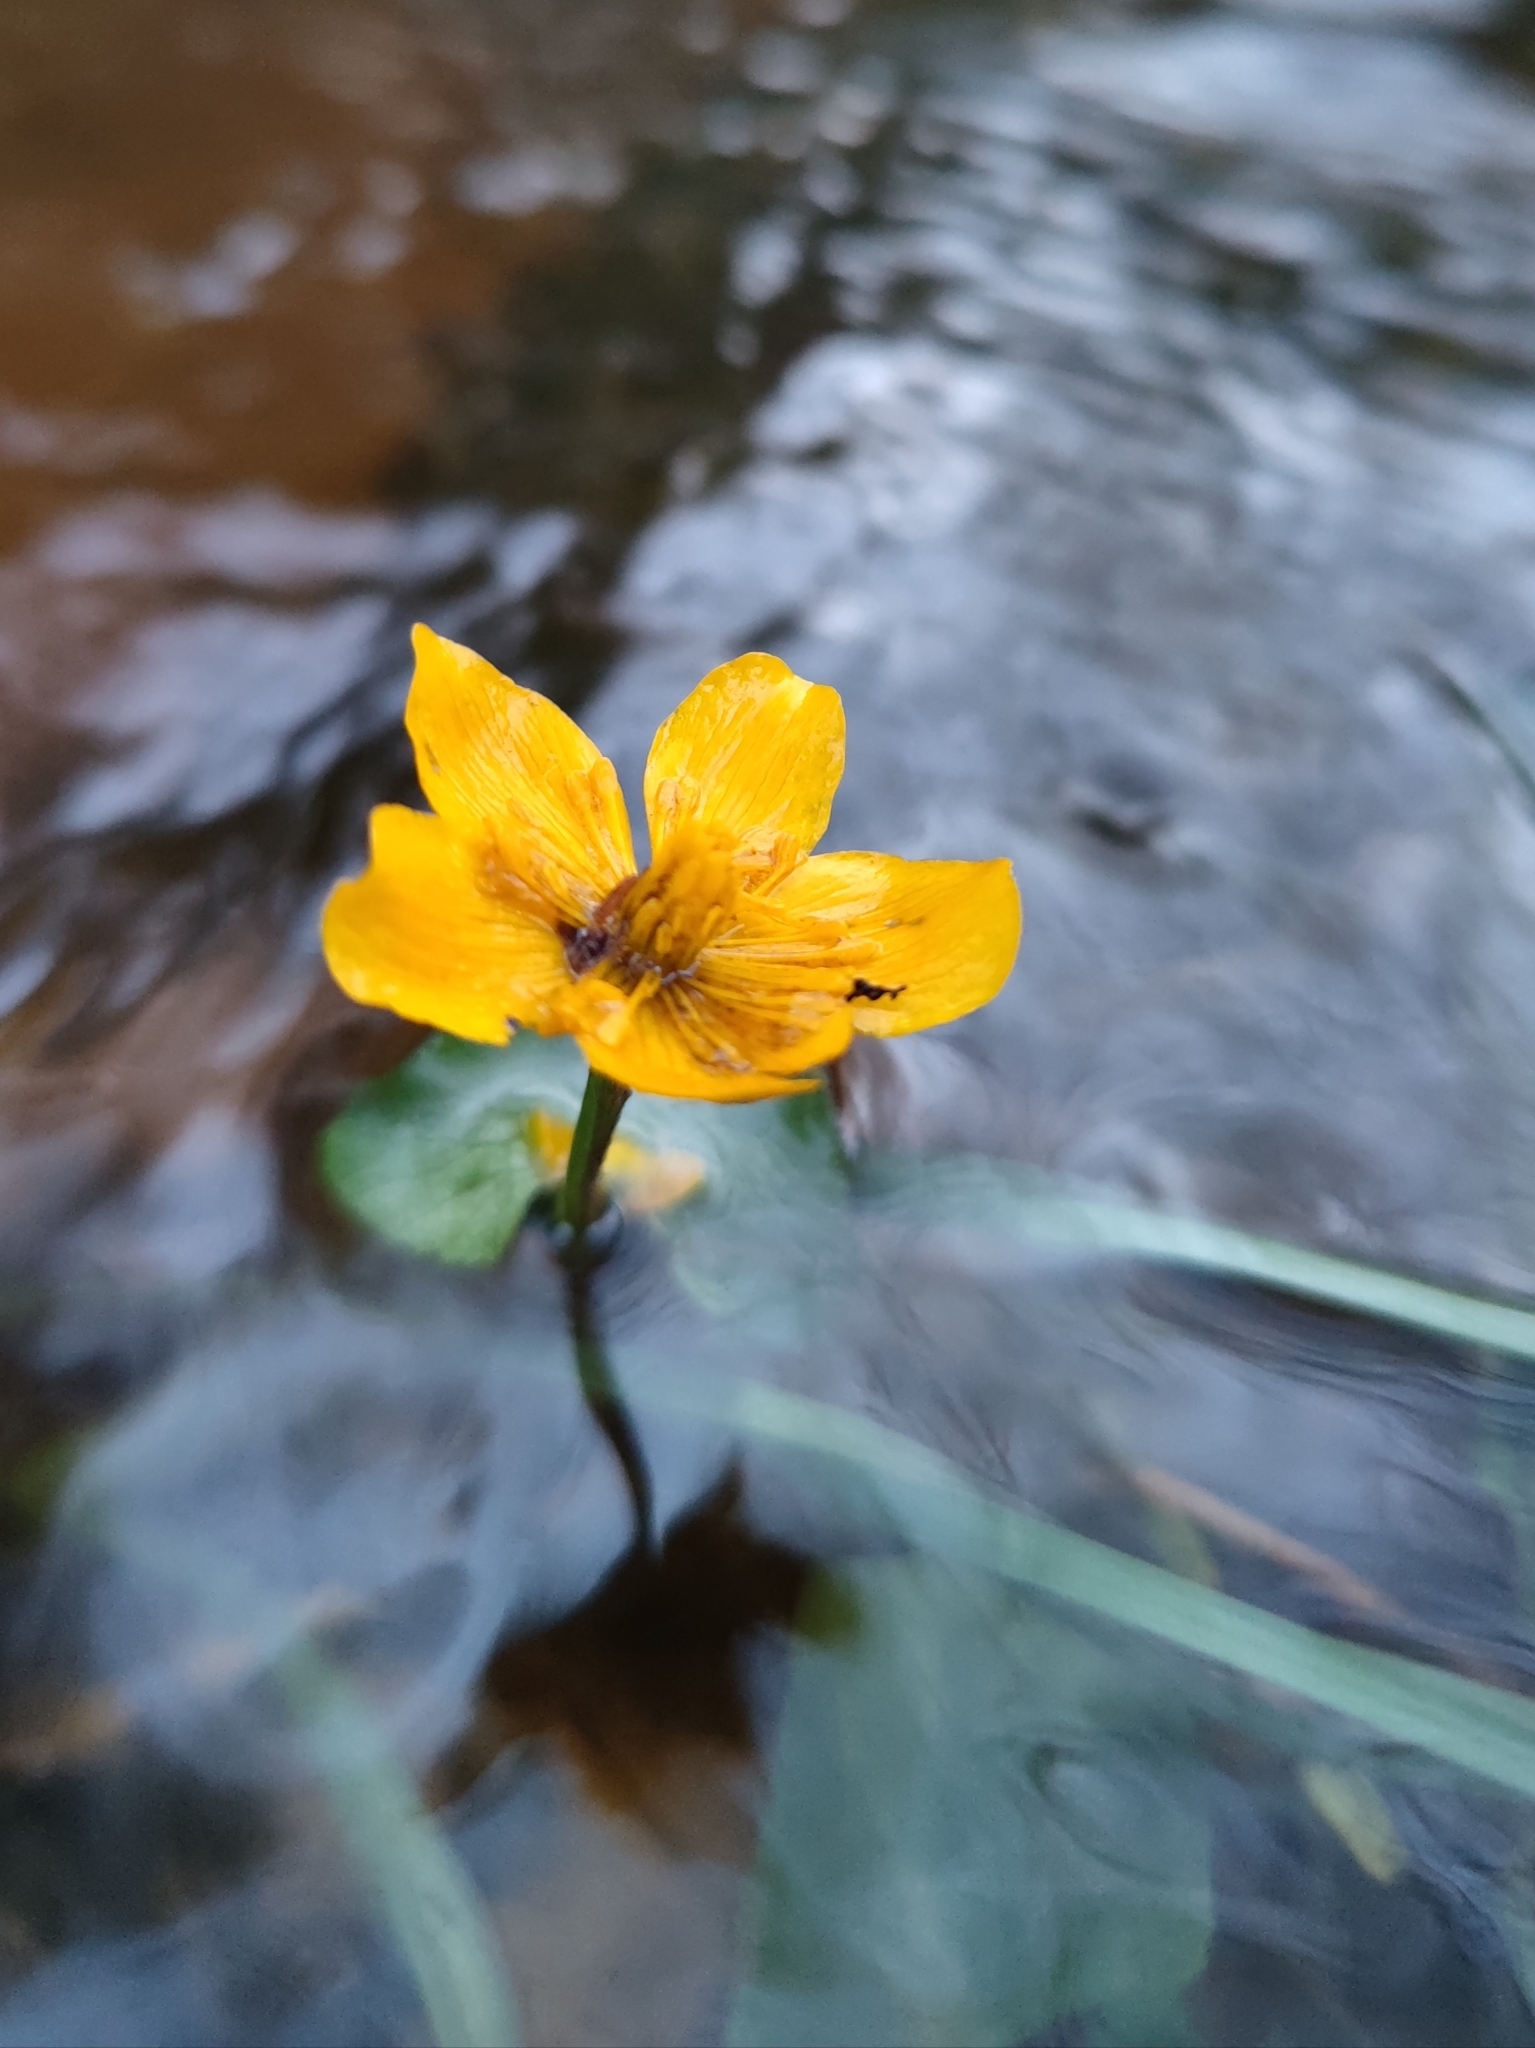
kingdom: Plantae
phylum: Tracheophyta
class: Magnoliopsida
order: Ranunculales
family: Ranunculaceae
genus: Caltha
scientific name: Caltha palustris
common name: Marsh marigold
